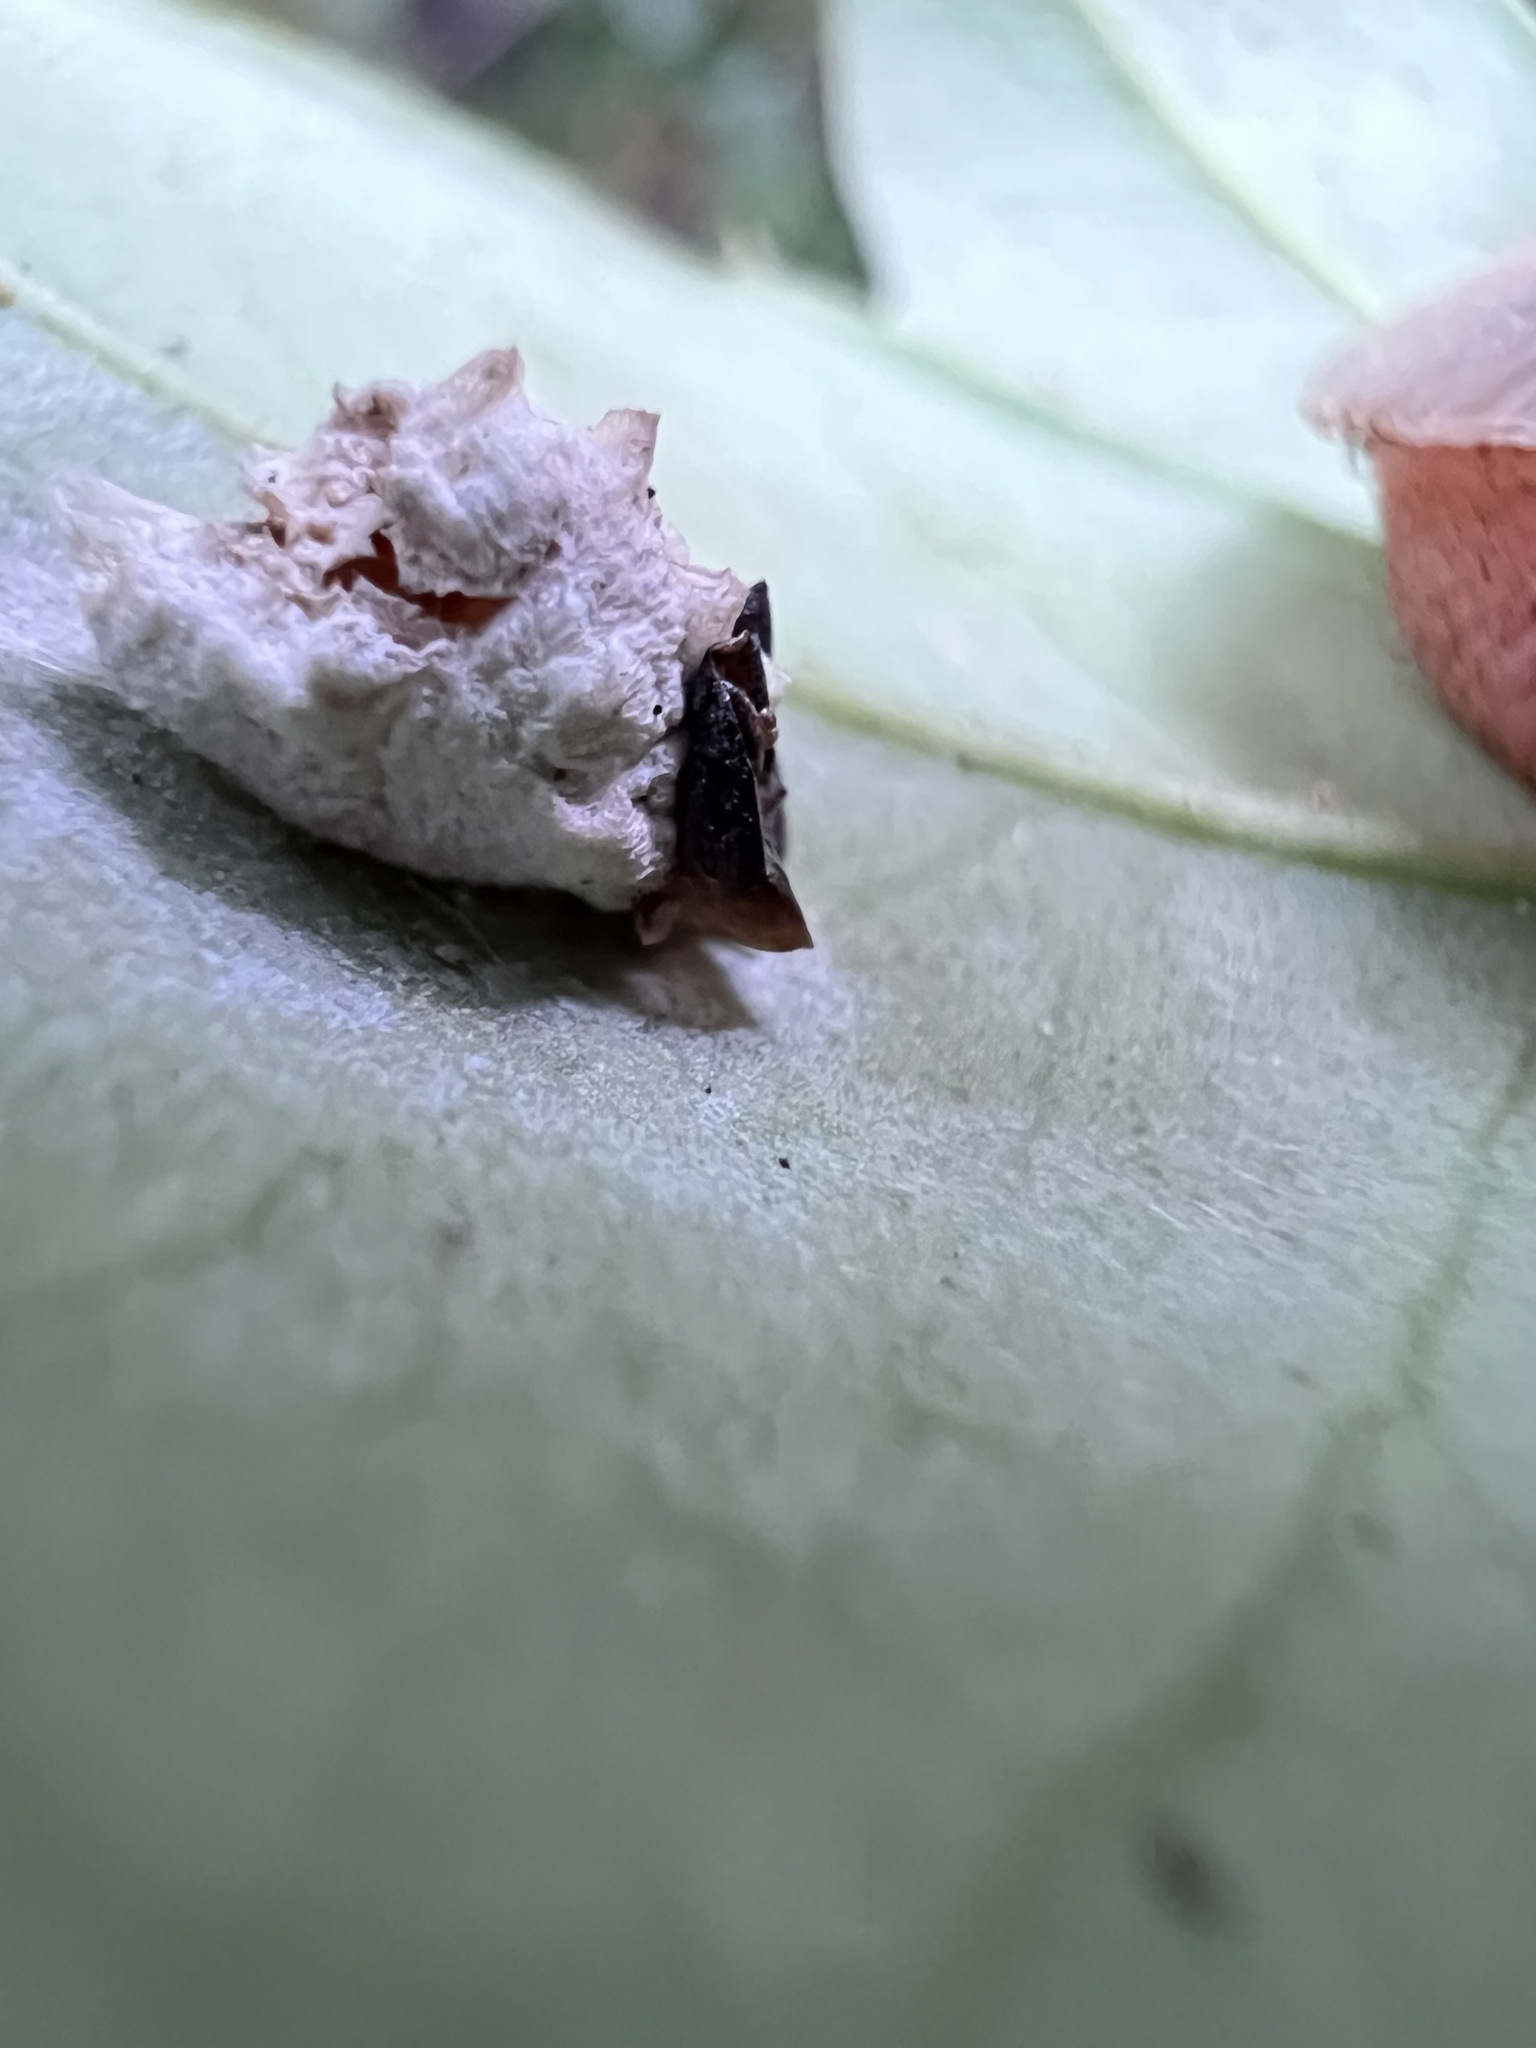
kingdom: Animalia
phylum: Arthropoda
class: Insecta
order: Lepidoptera
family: Epipyropidae
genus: Fulgoraecia
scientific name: Fulgoraecia exigua
